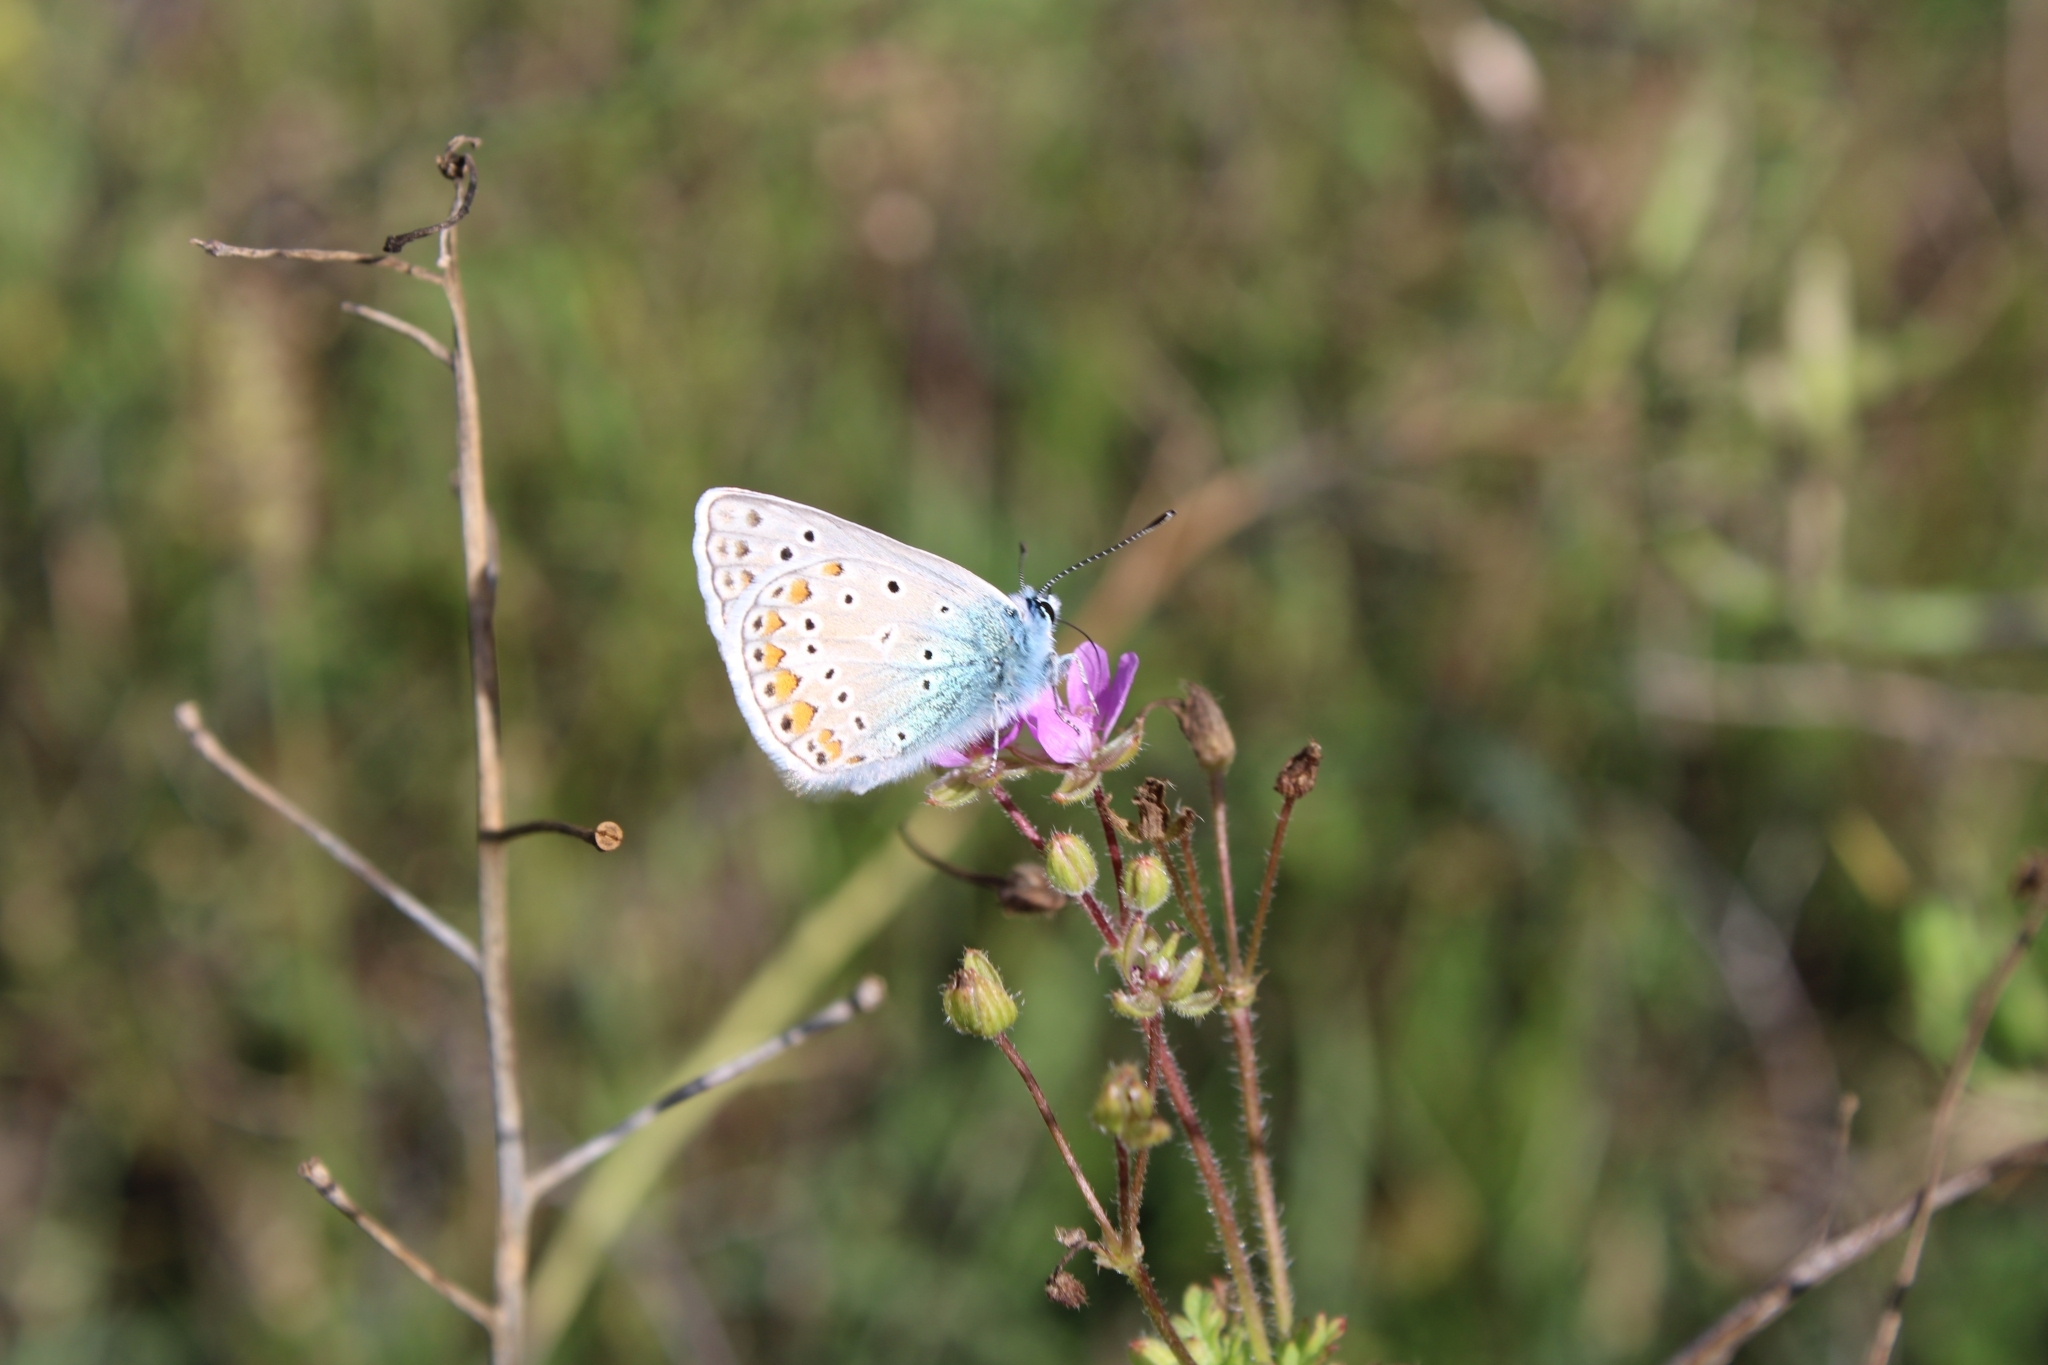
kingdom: Animalia
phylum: Arthropoda
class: Insecta
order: Lepidoptera
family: Lycaenidae
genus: Polyommatus
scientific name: Polyommatus icarus
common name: Common blue
